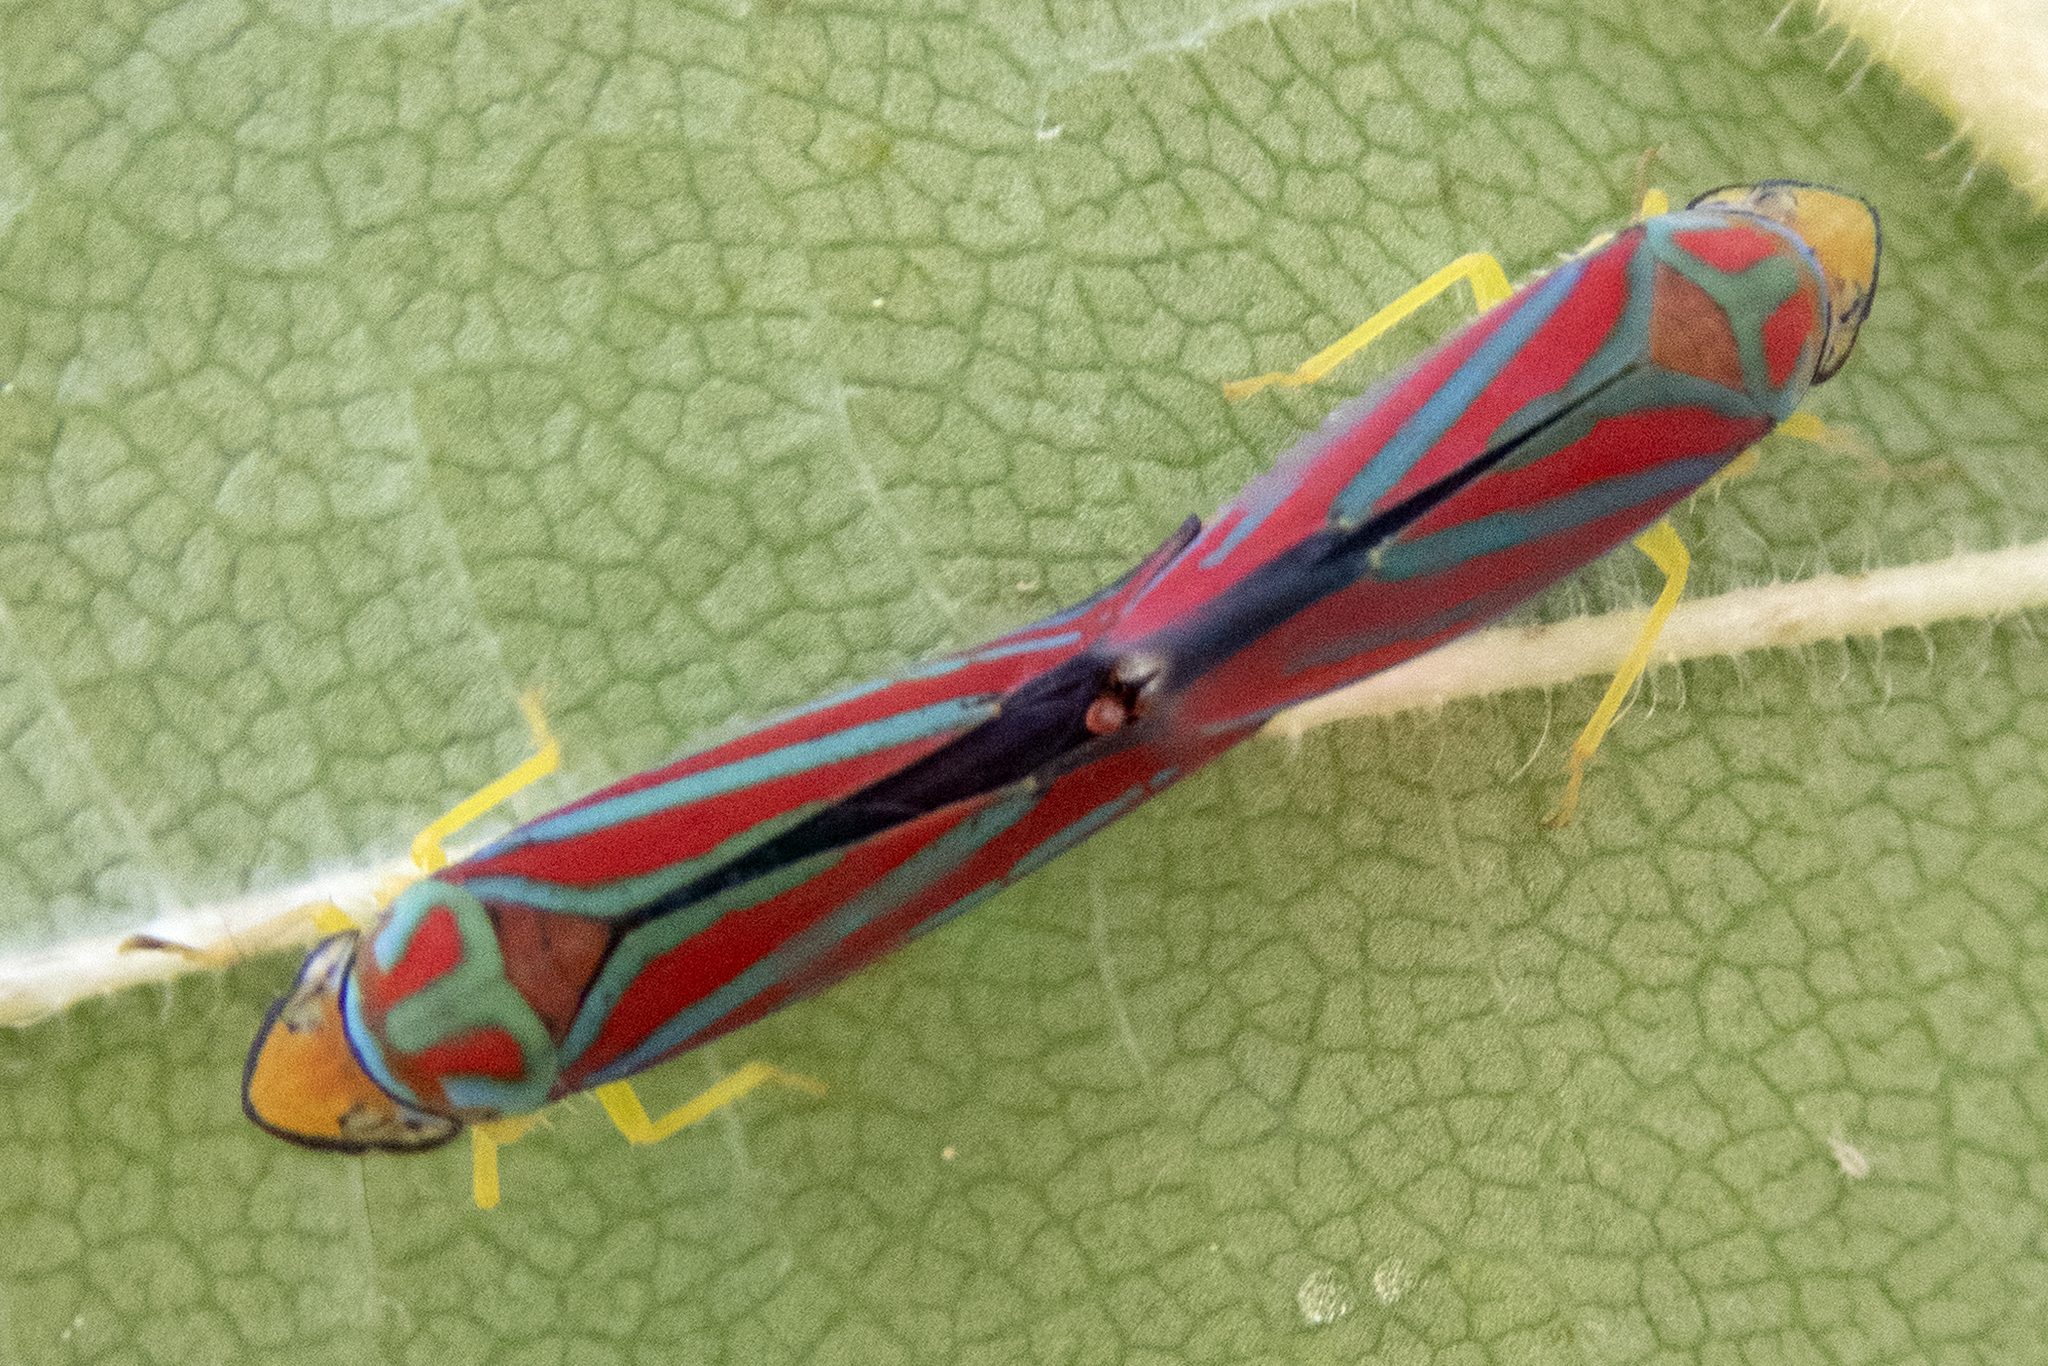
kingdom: Animalia
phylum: Arthropoda
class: Insecta
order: Hemiptera
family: Cicadellidae
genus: Graphocephala
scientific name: Graphocephala coccinea
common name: Candy-striped leafhopper
